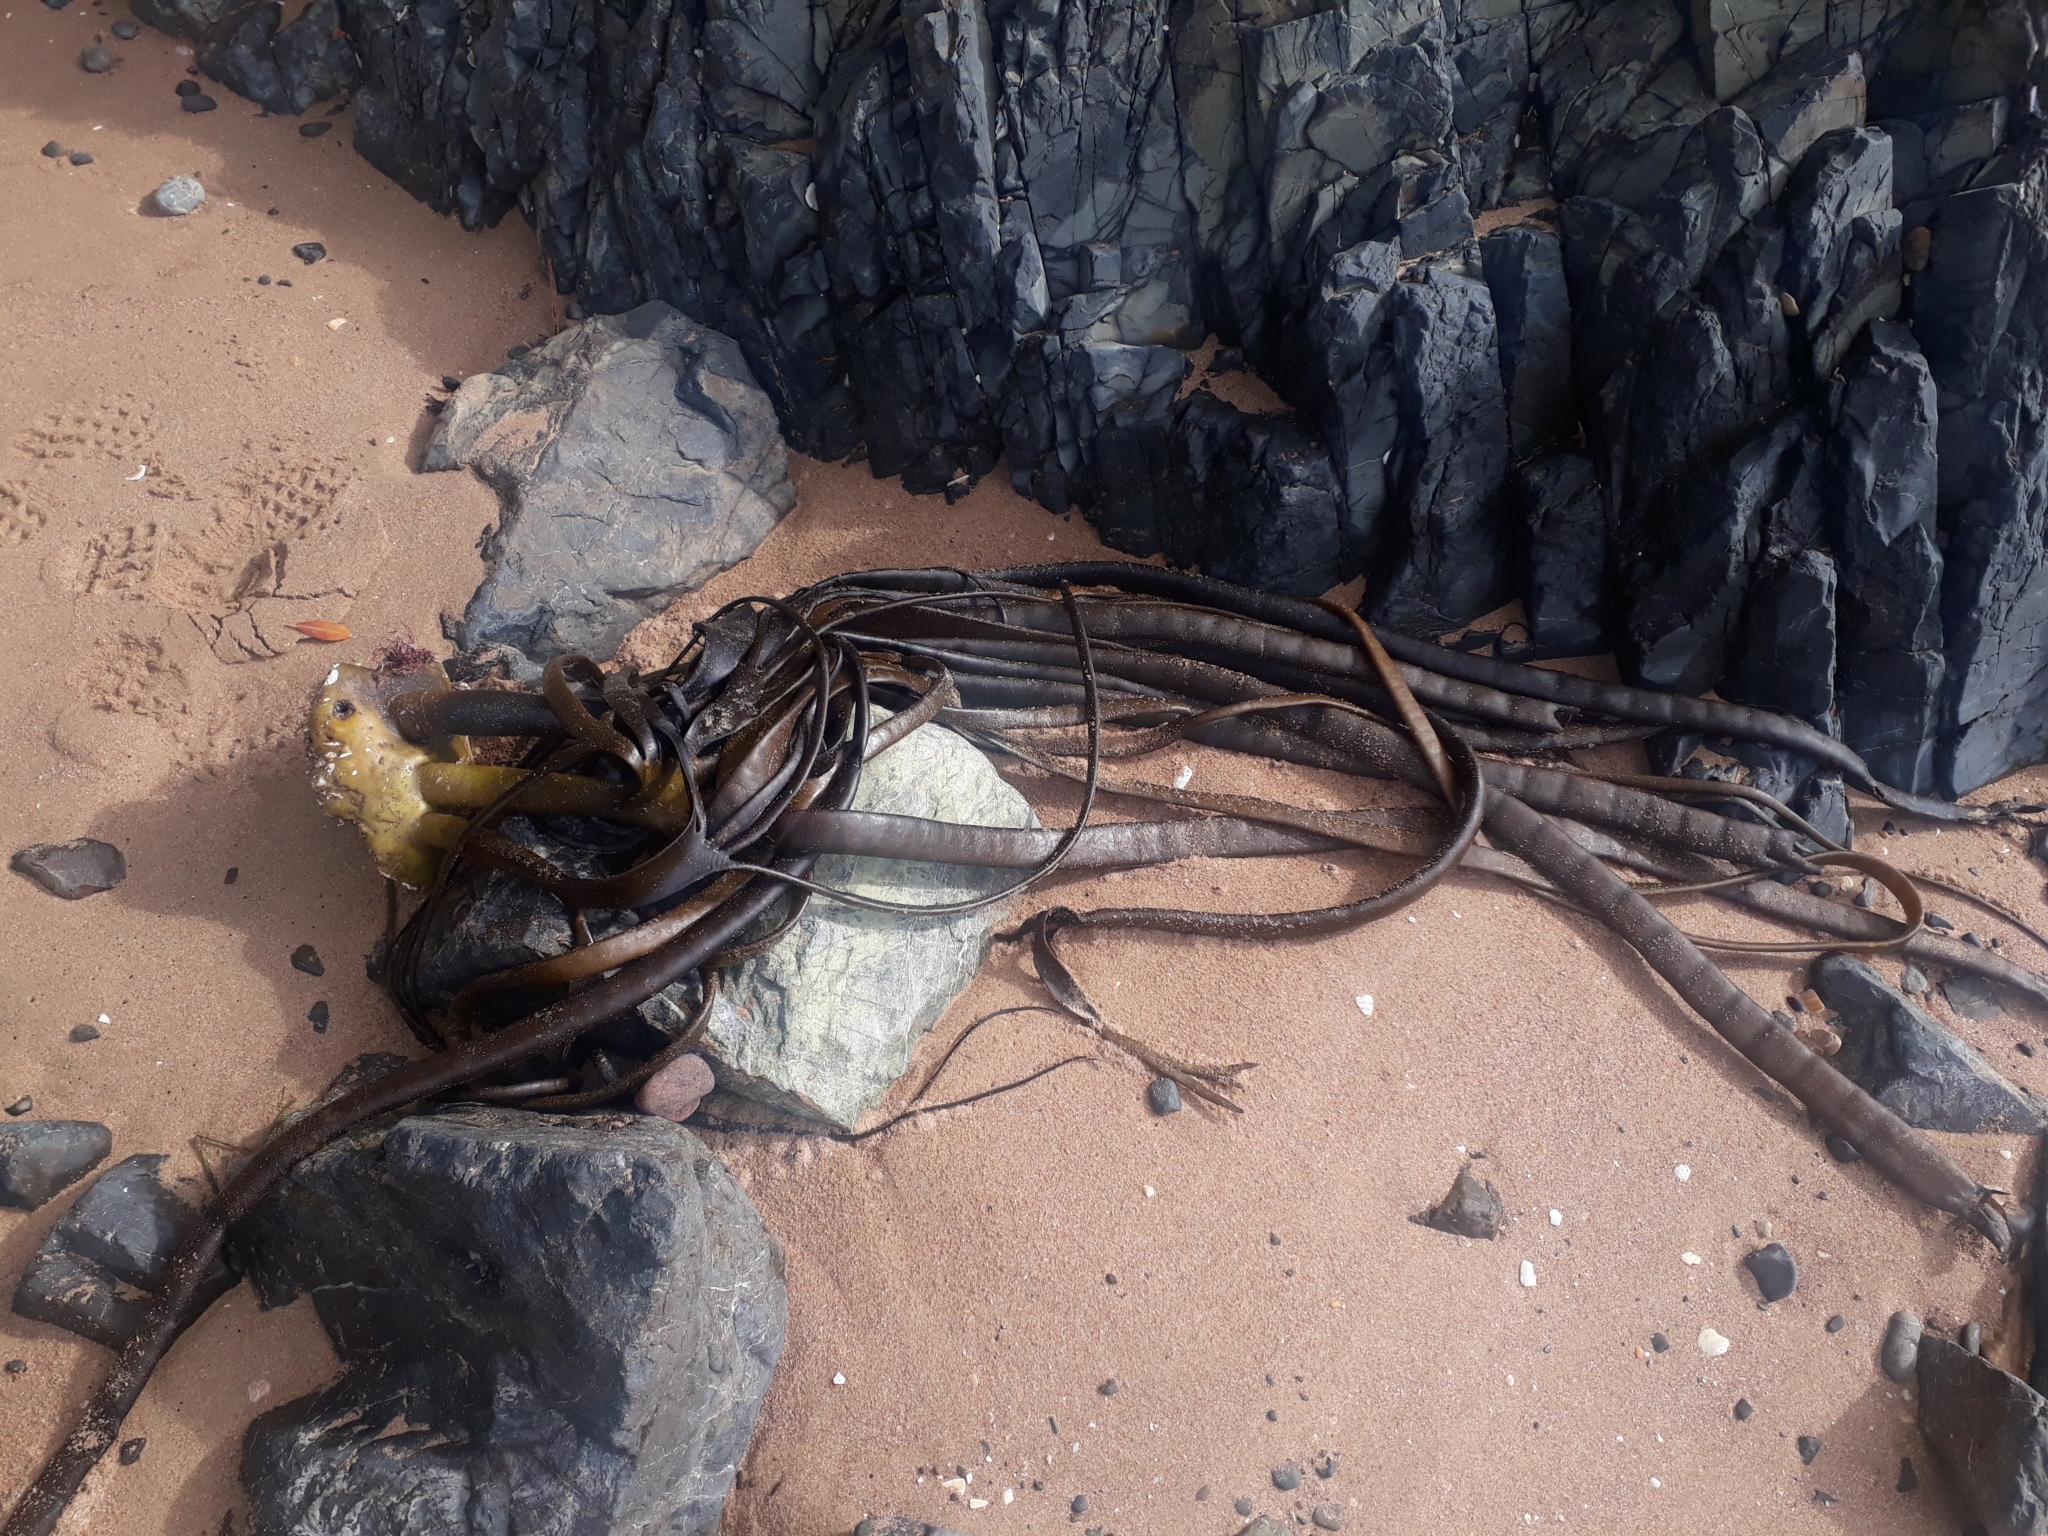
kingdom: Chromista
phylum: Ochrophyta
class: Phaeophyceae
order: Fucales
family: Durvillaeaceae
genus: Durvillaea
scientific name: Durvillaea antarctica
